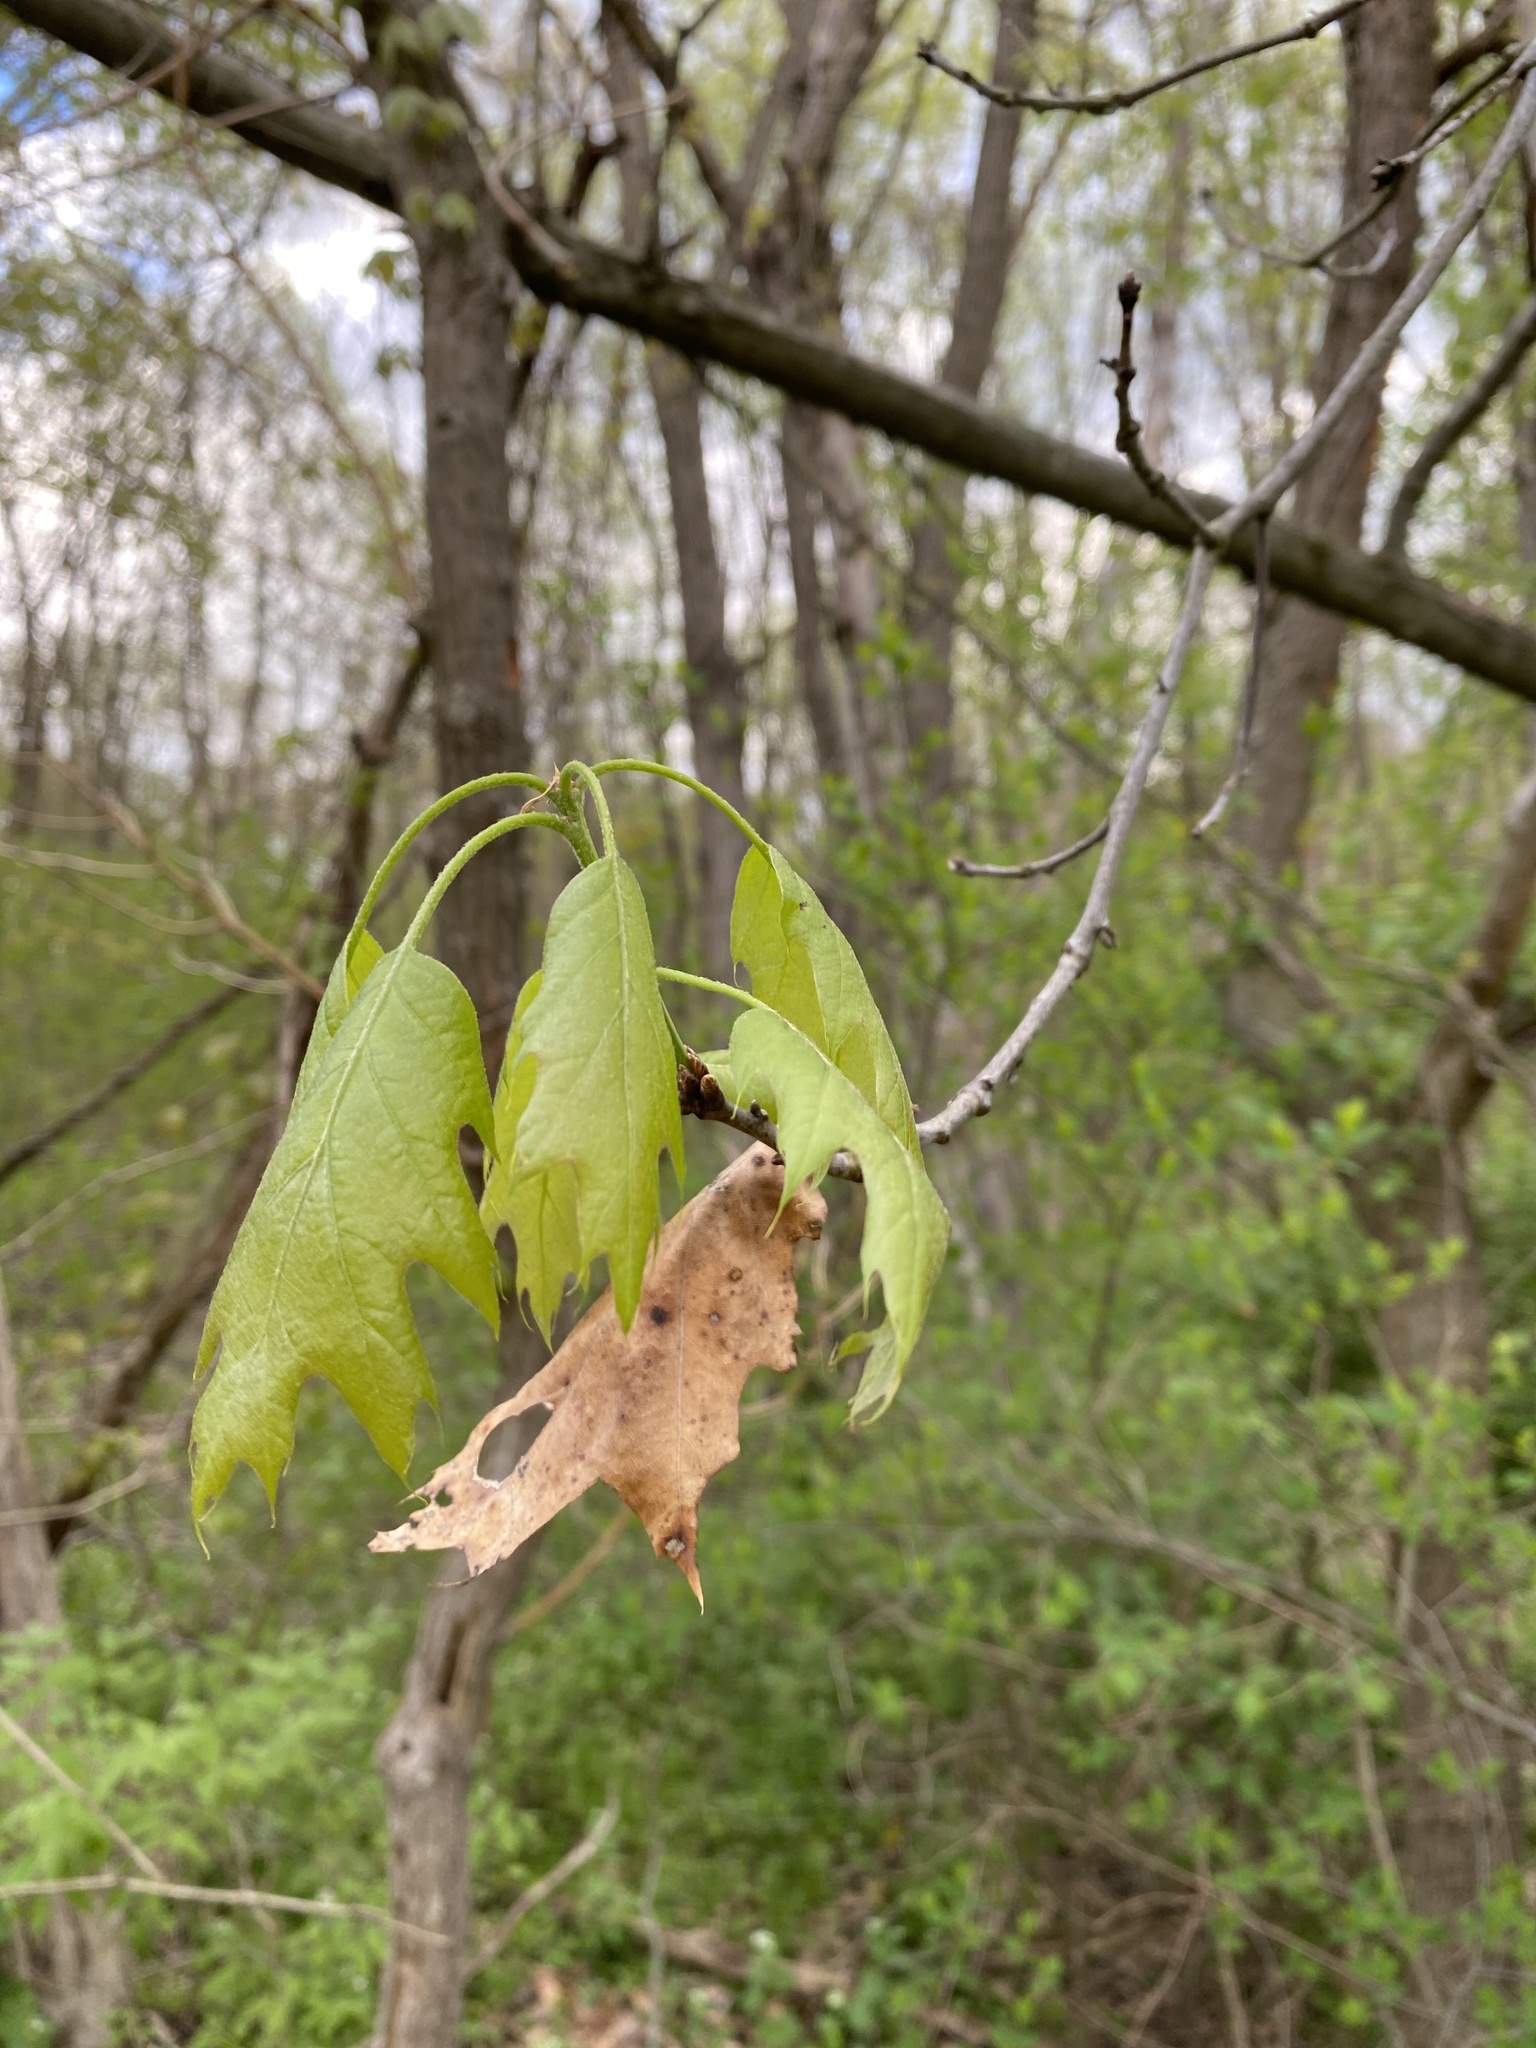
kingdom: Plantae
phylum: Tracheophyta
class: Magnoliopsida
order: Fagales
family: Fagaceae
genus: Quercus
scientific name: Quercus rubra
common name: Red oak
